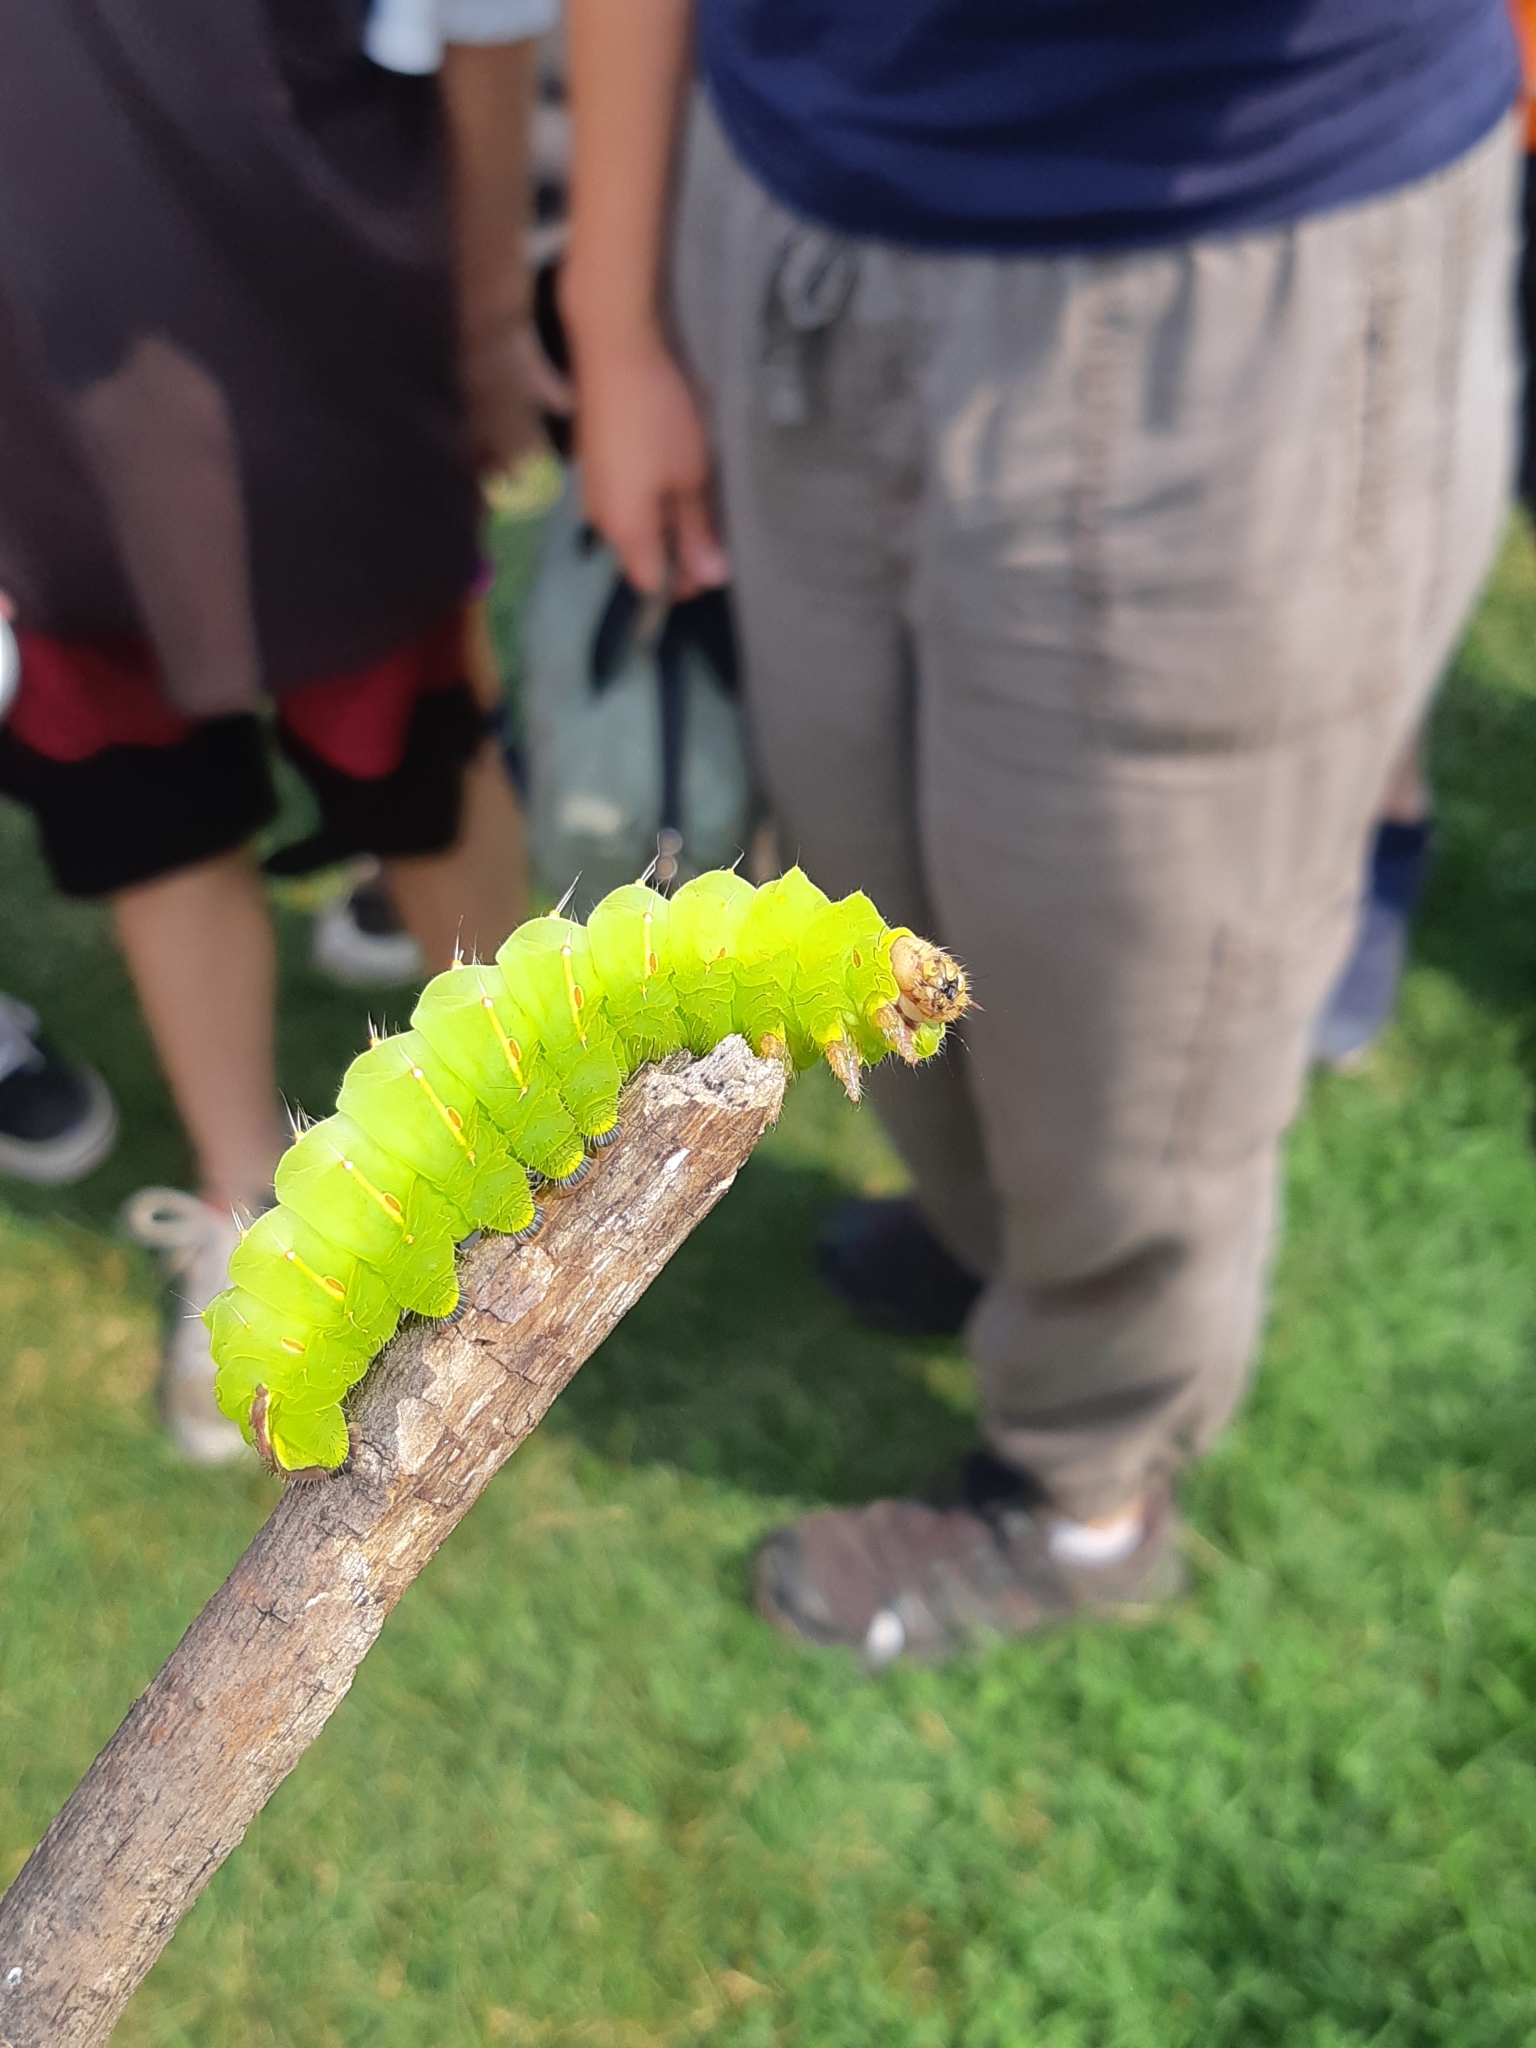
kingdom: Animalia
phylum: Arthropoda
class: Insecta
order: Lepidoptera
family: Saturniidae
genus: Antheraea
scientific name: Antheraea polyphemus
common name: Polyphemus moth
